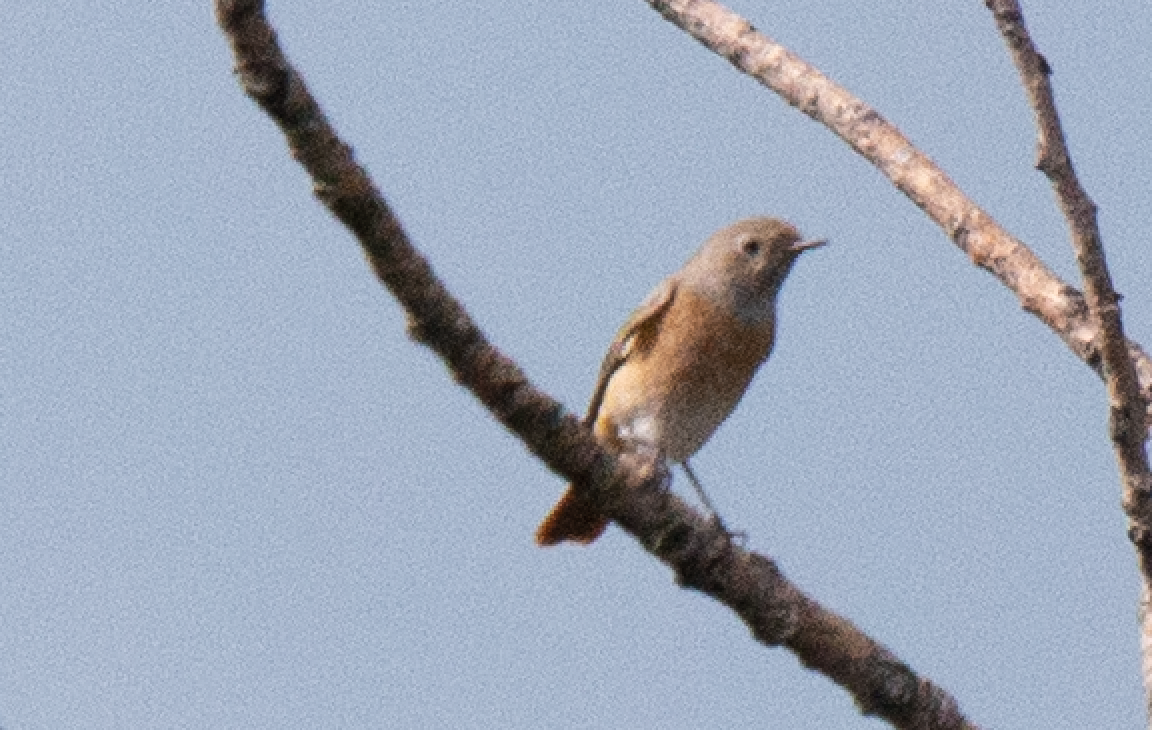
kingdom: Animalia
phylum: Chordata
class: Aves
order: Passeriformes
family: Muscicapidae
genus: Phoenicurus
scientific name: Phoenicurus phoenicurus
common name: Common redstart
